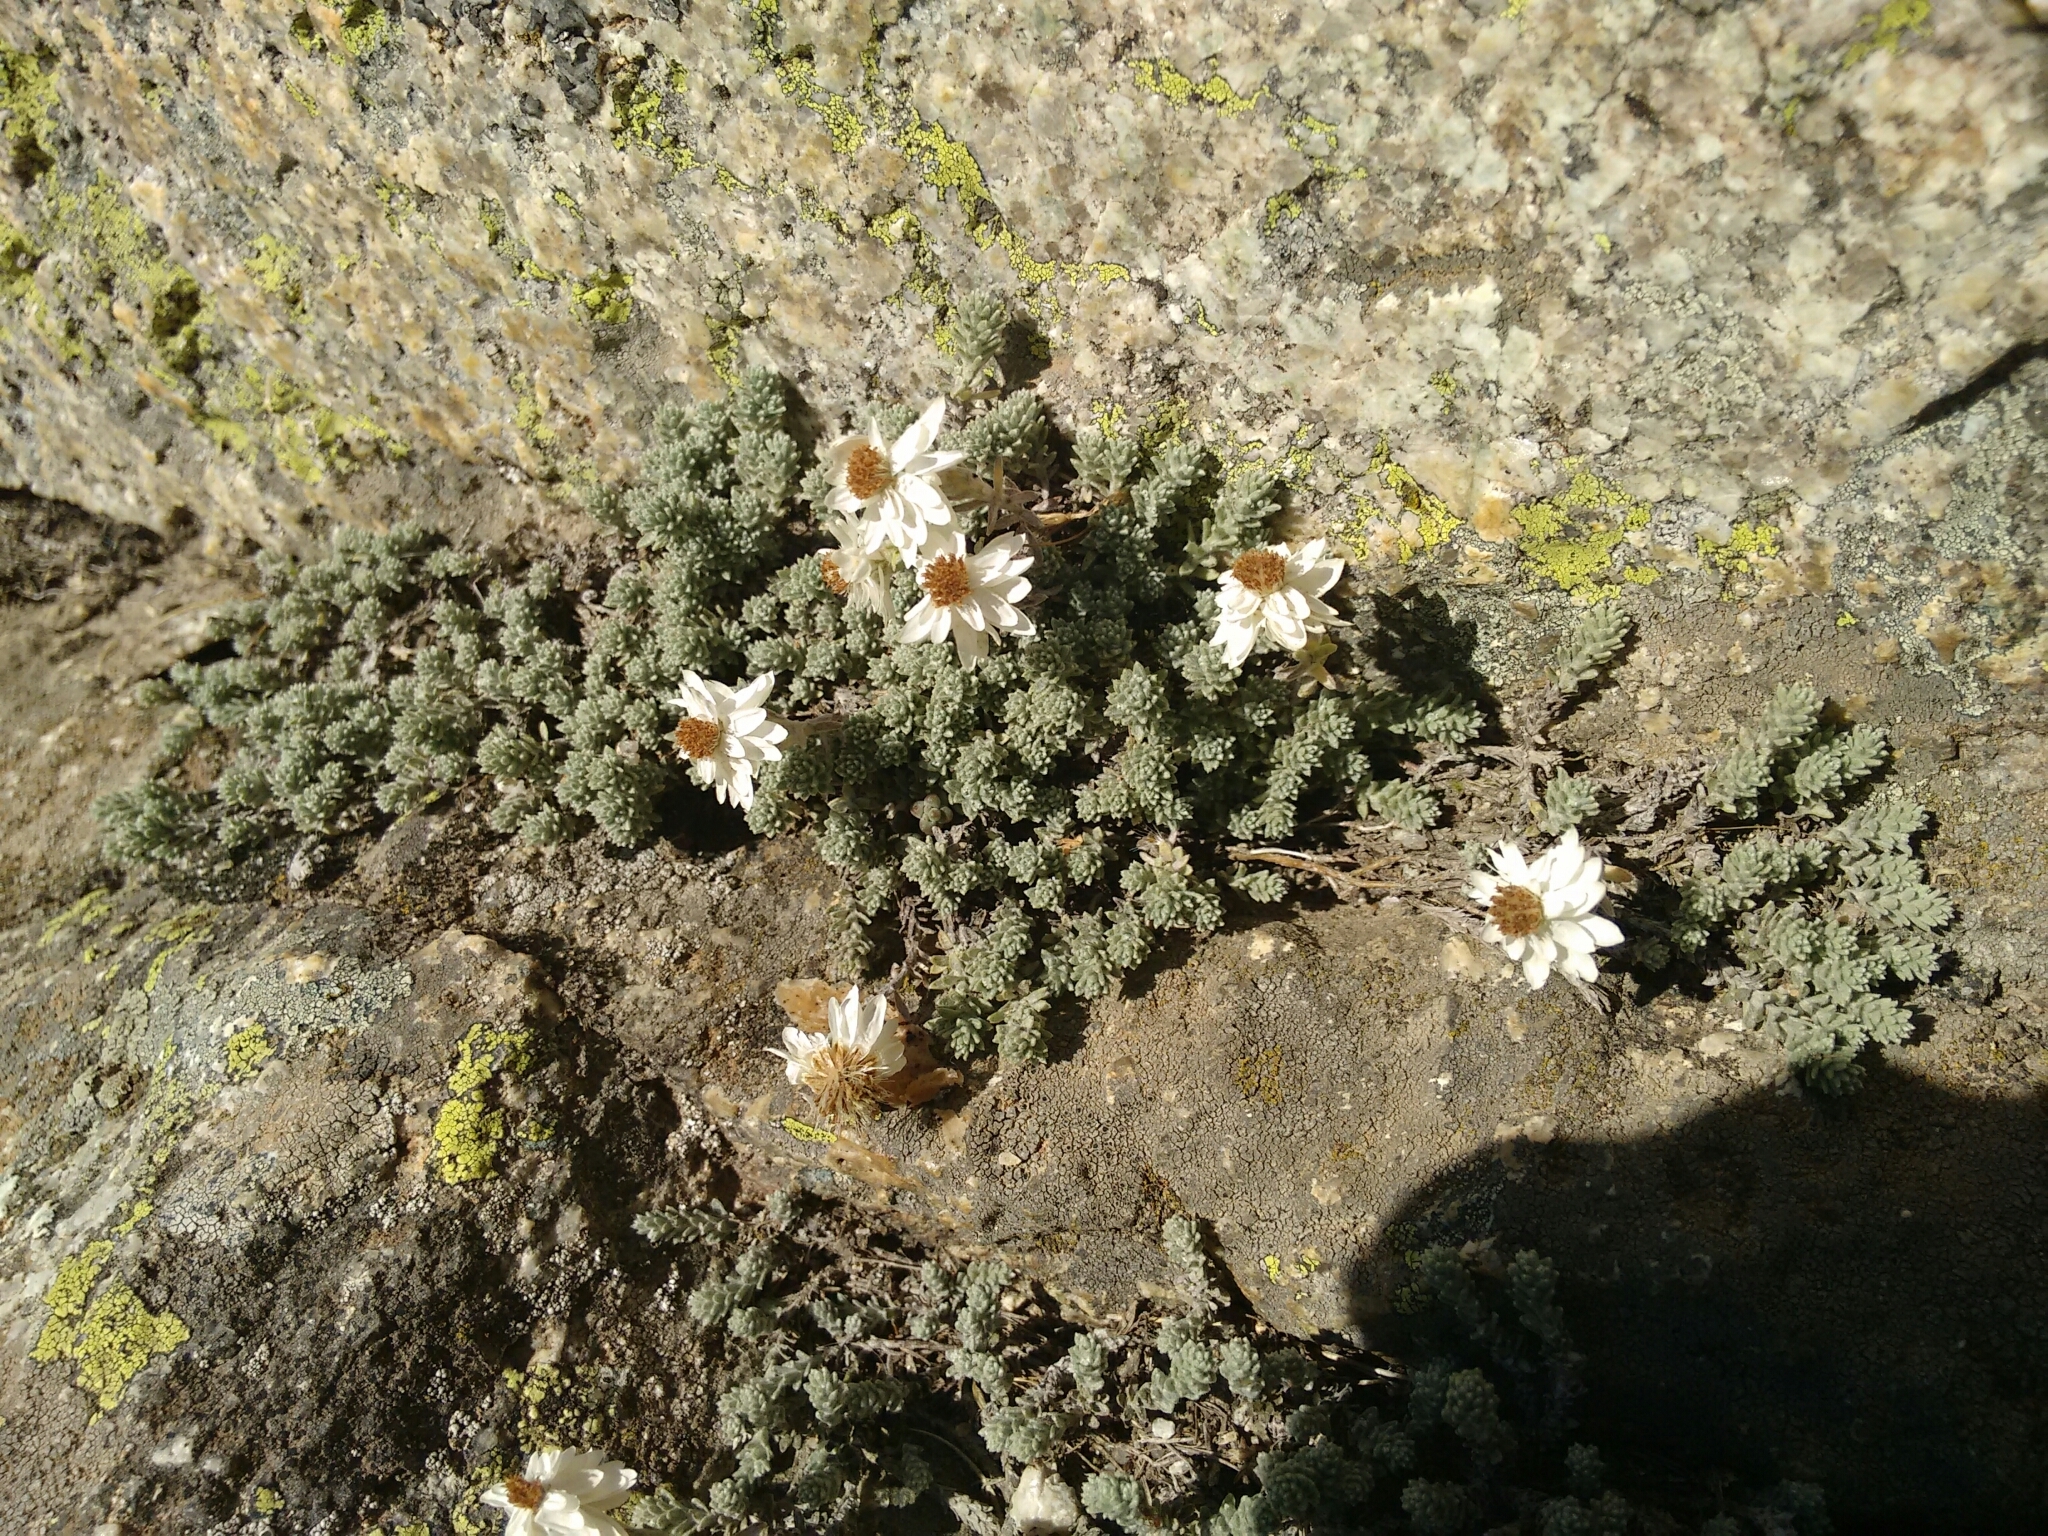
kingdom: Plantae
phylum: Tracheophyta
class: Magnoliopsida
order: Asterales
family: Asteraceae
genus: Castroviejoa
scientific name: Castroviejoa frigida
